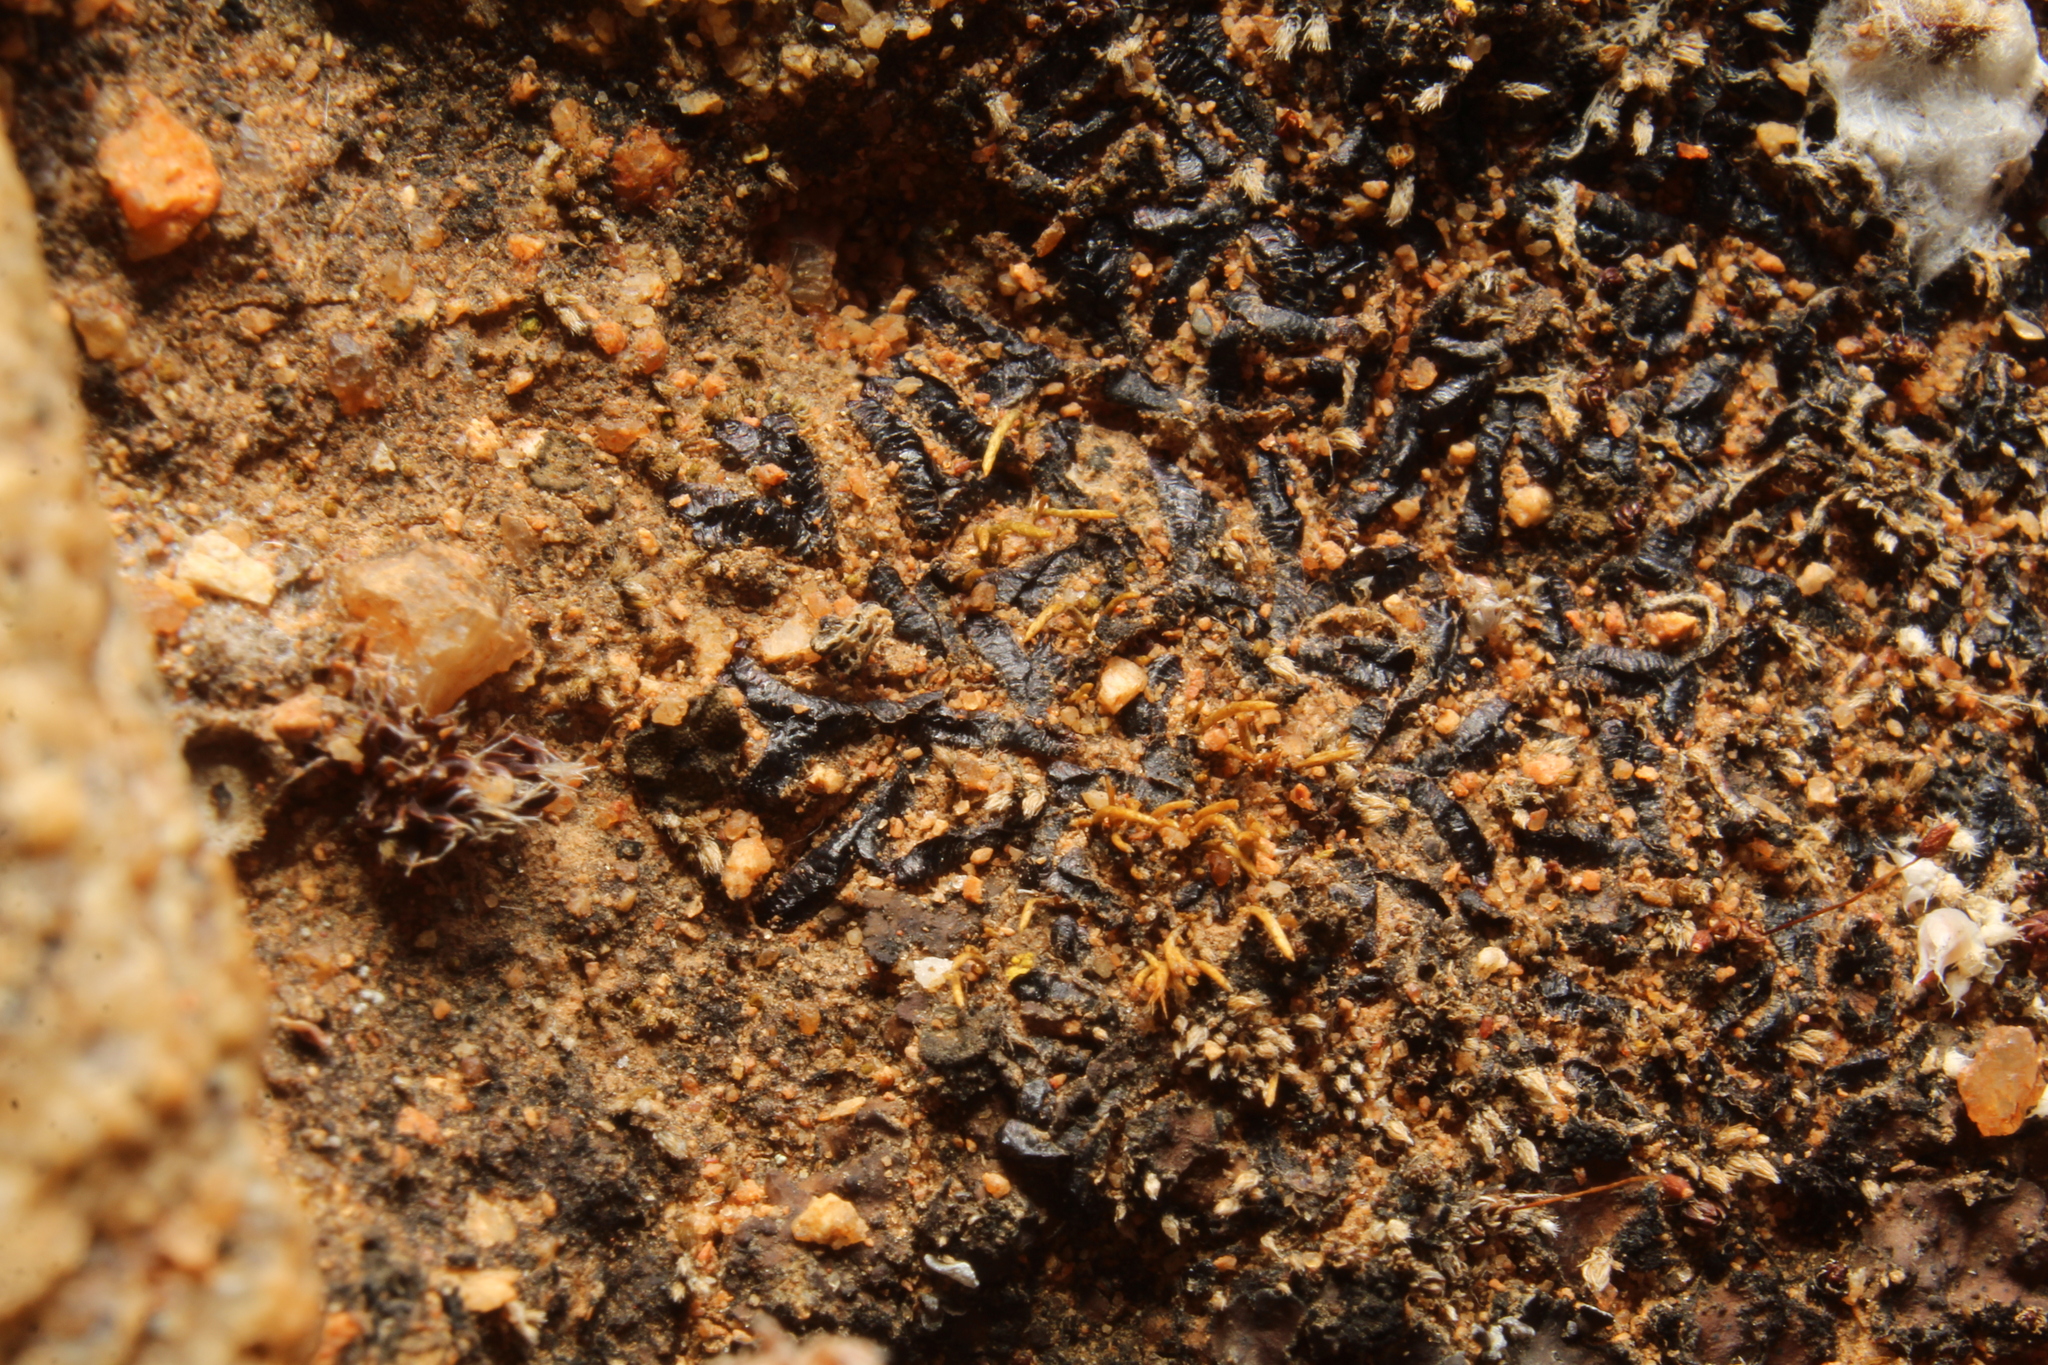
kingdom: Plantae
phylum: Marchantiophyta
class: Marchantiopsida
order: Marchantiales
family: Ricciaceae
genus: Riccia
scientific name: Riccia inflexa
